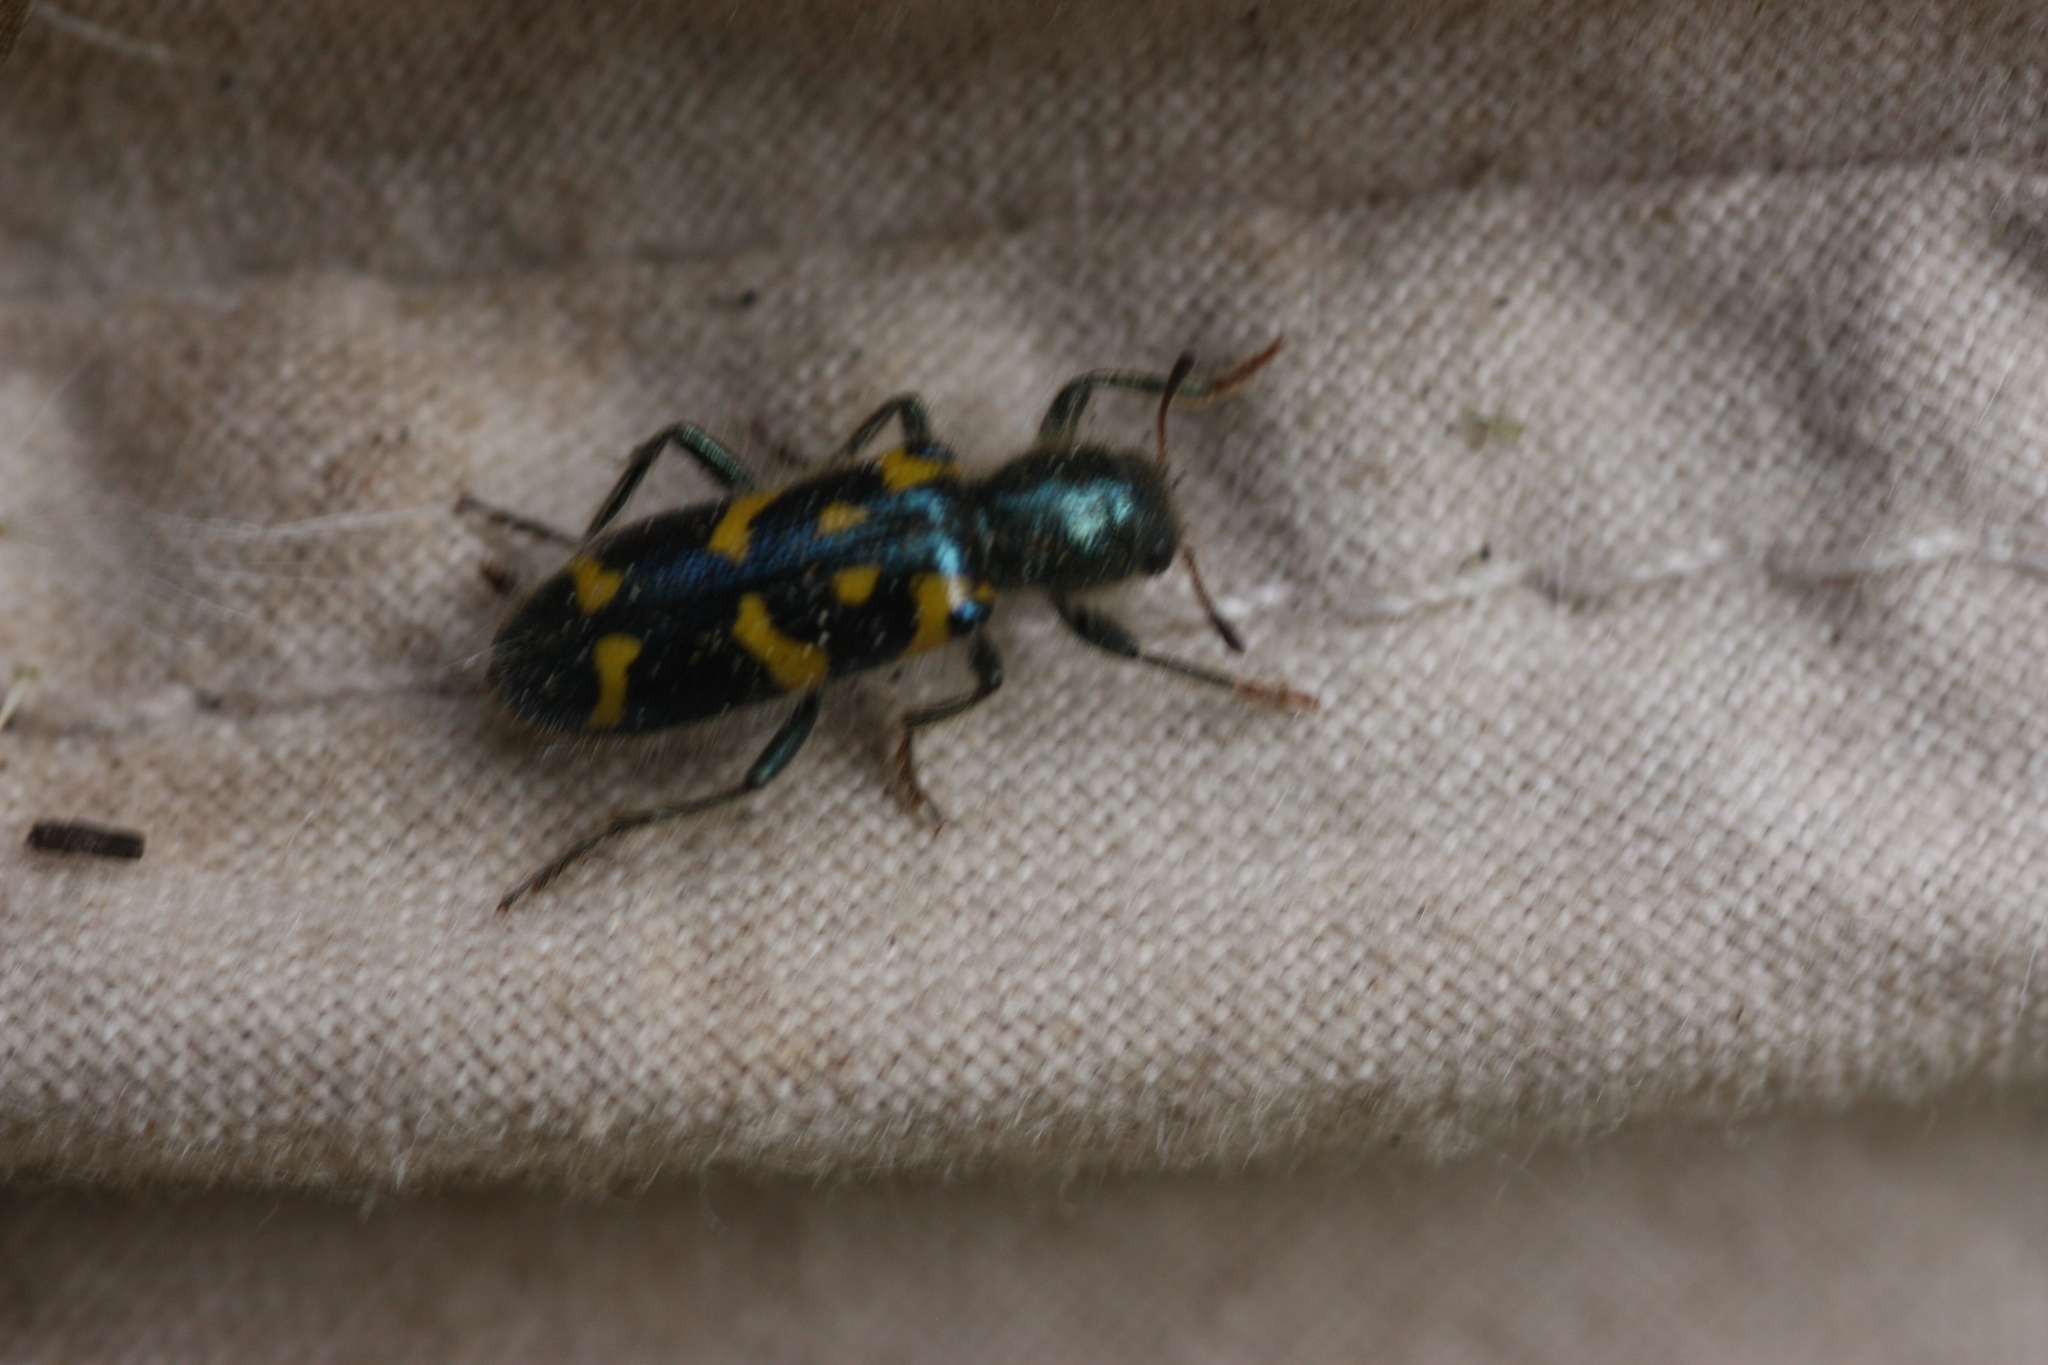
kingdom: Animalia
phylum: Arthropoda
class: Insecta
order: Coleoptera
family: Cleridae
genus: Trichodes
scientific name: Trichodes ornatus
